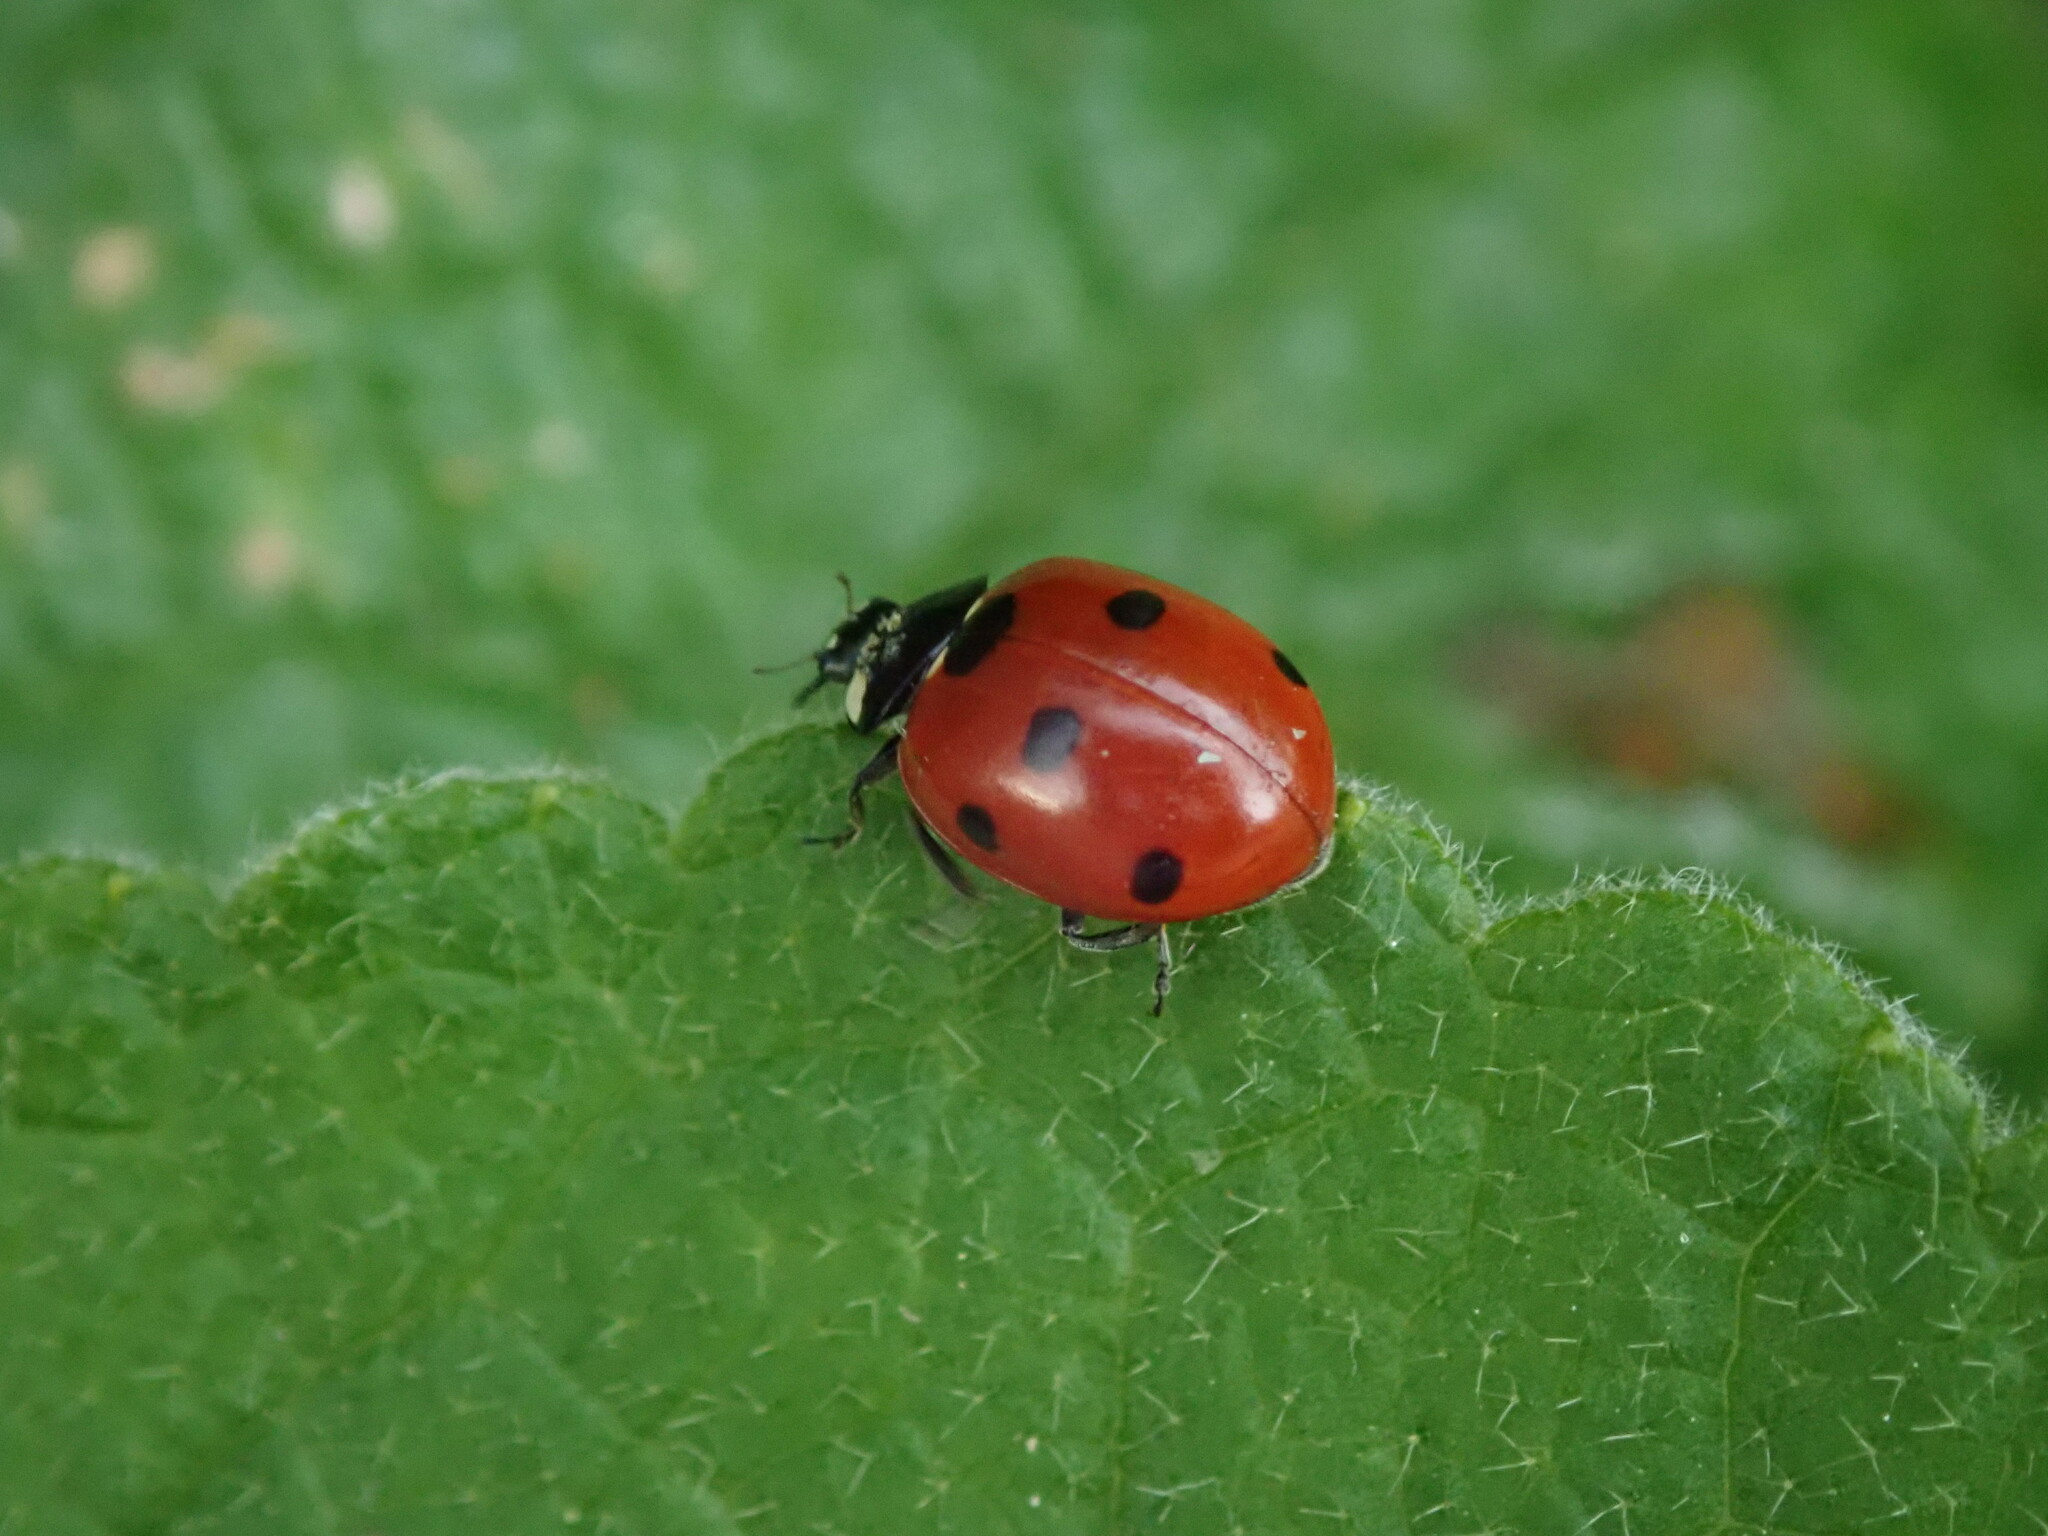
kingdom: Animalia
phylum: Arthropoda
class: Insecta
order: Coleoptera
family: Coccinellidae
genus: Coccinella
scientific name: Coccinella septempunctata
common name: Sevenspotted lady beetle
